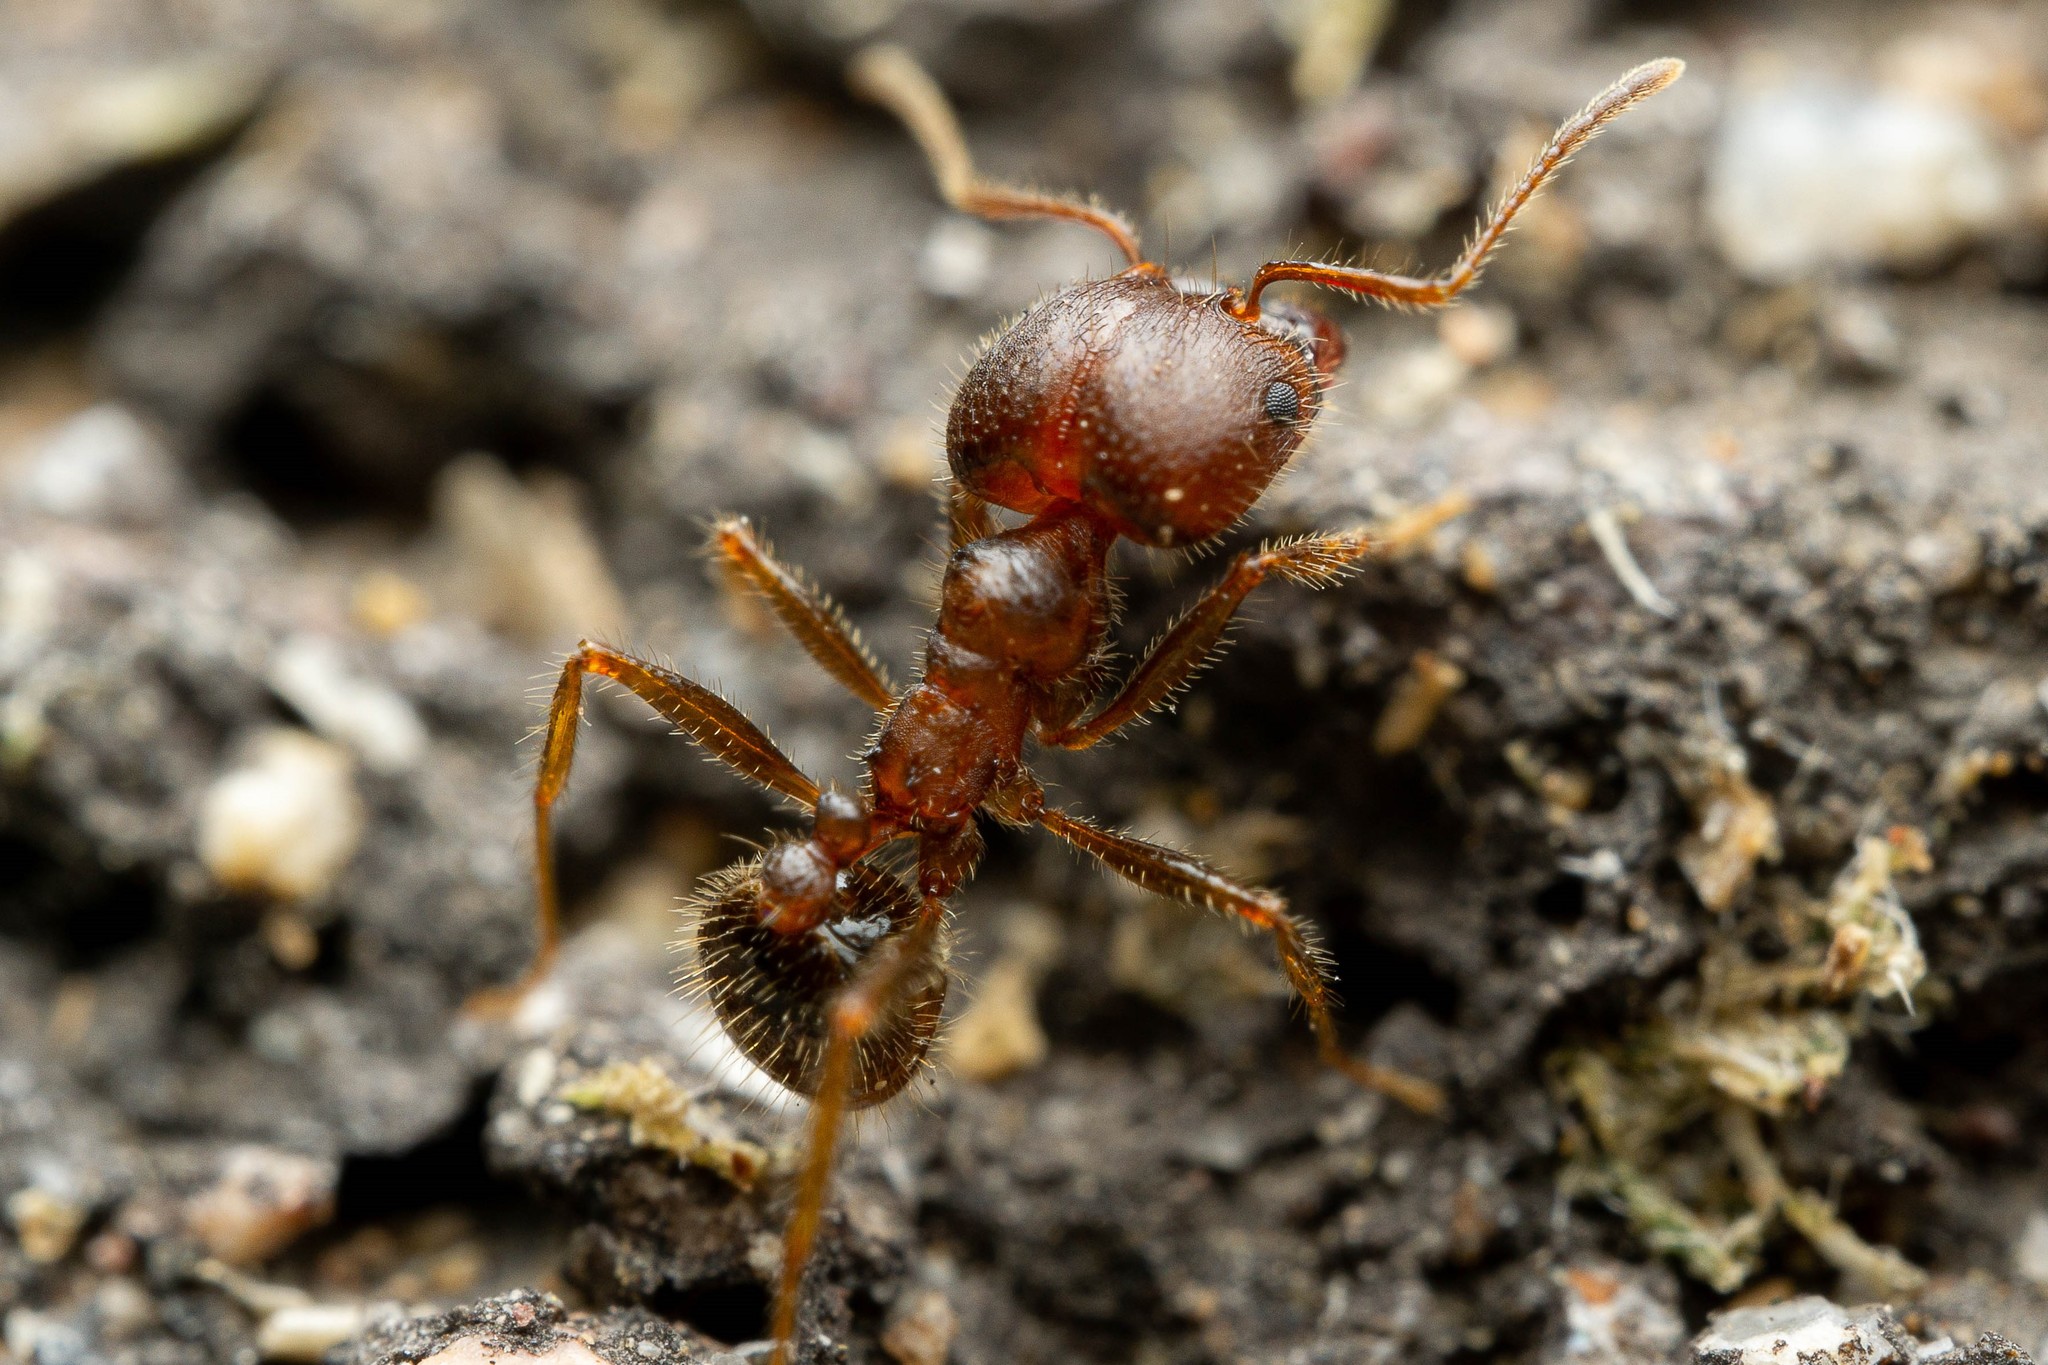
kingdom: Animalia
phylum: Arthropoda
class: Insecta
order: Hymenoptera
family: Formicidae
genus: Pheidole
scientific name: Pheidole obtusospinosa
